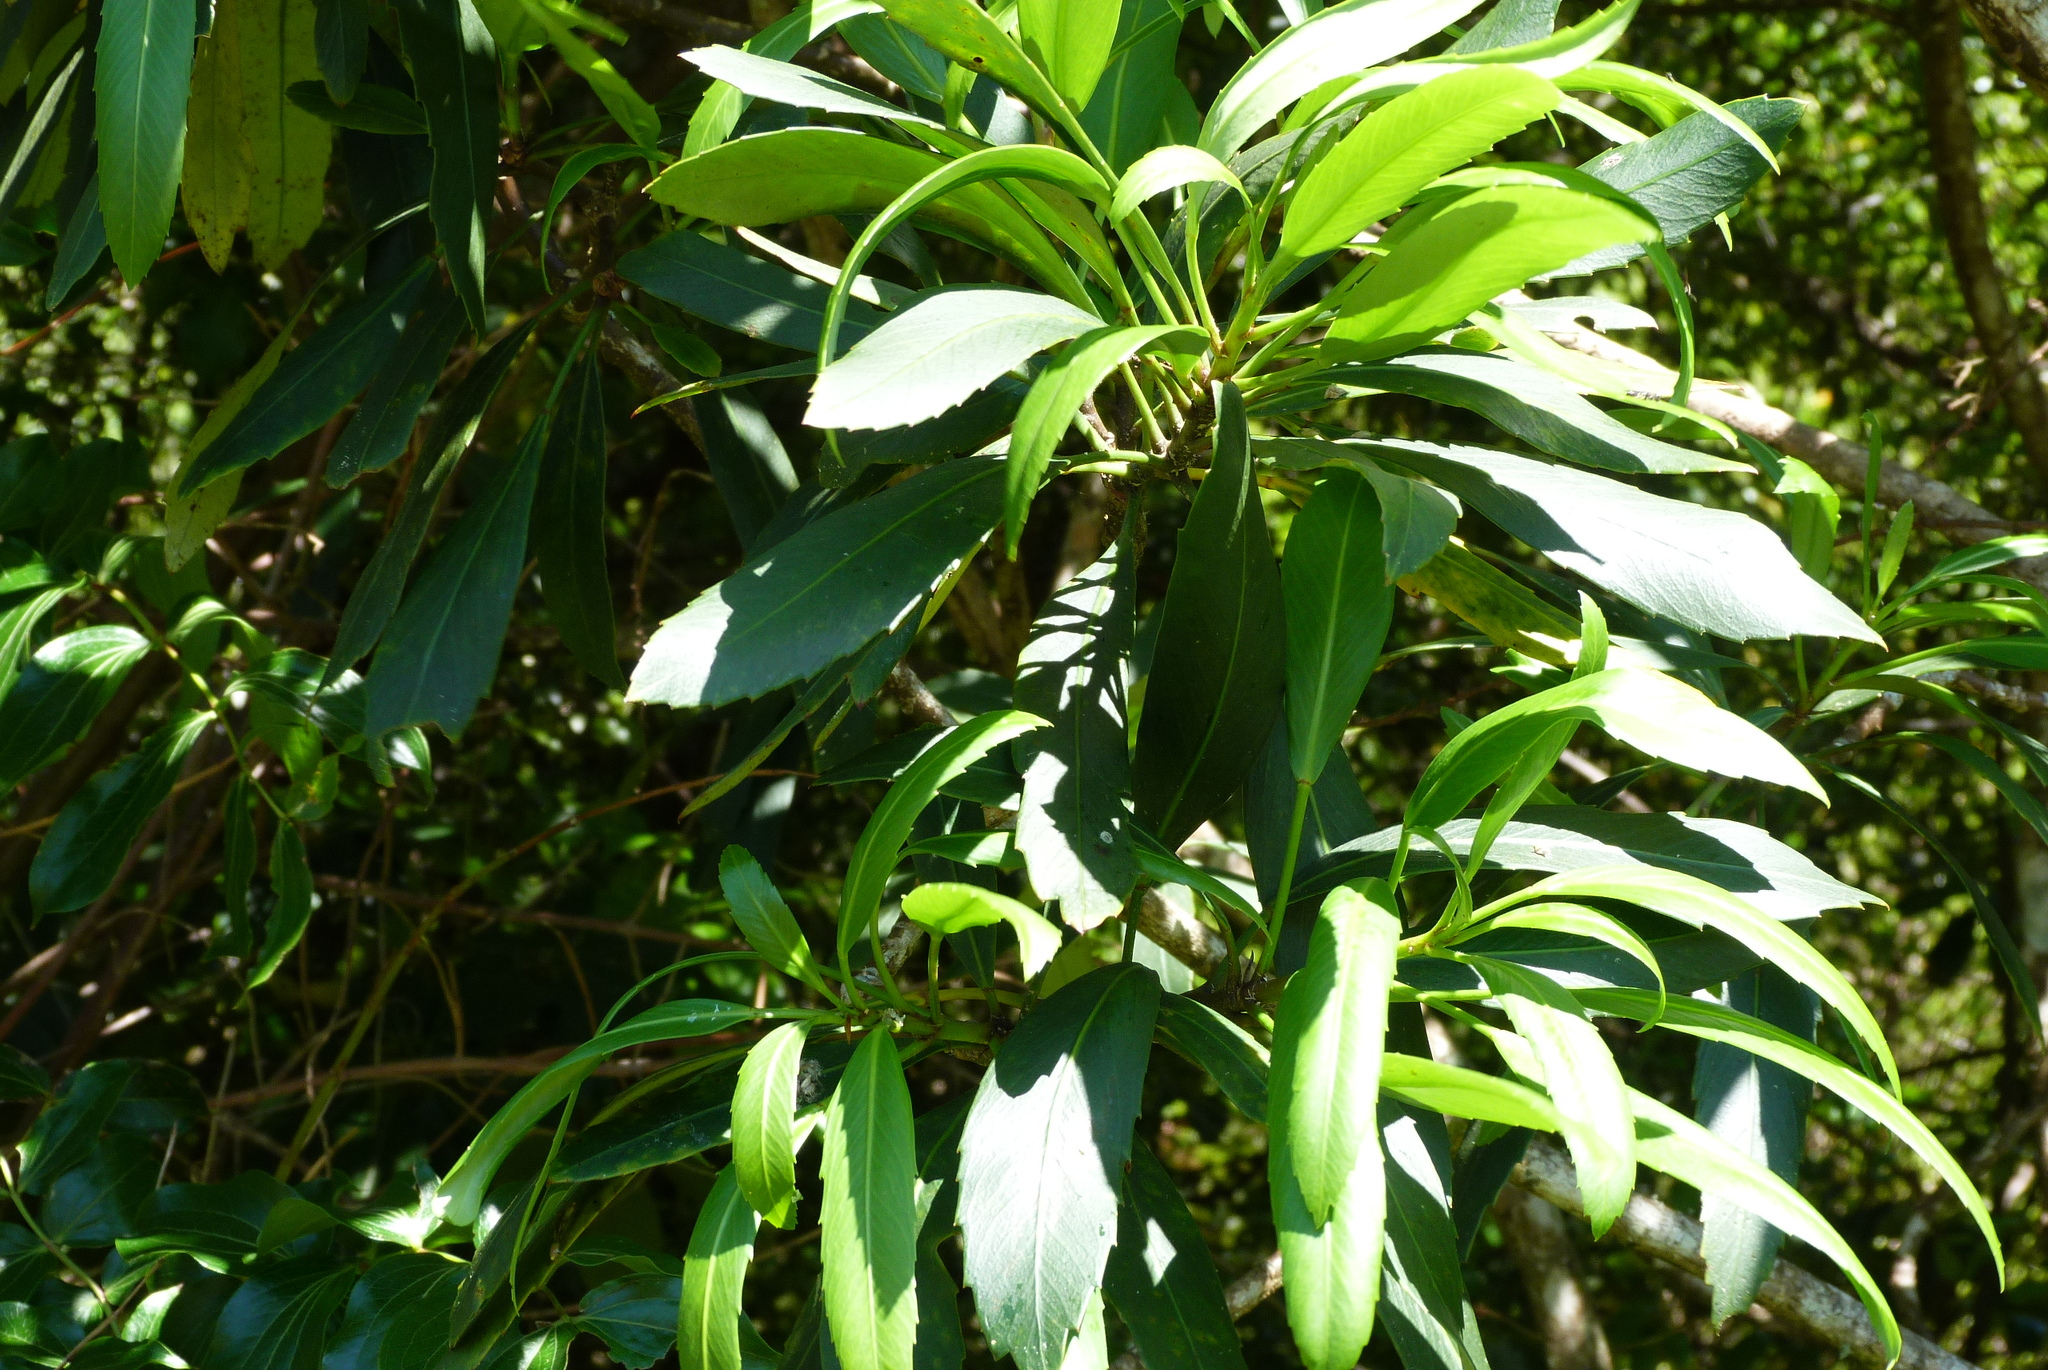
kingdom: Plantae
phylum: Tracheophyta
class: Magnoliopsida
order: Apiales
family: Araliaceae
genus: Pseudopanax
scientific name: Pseudopanax
